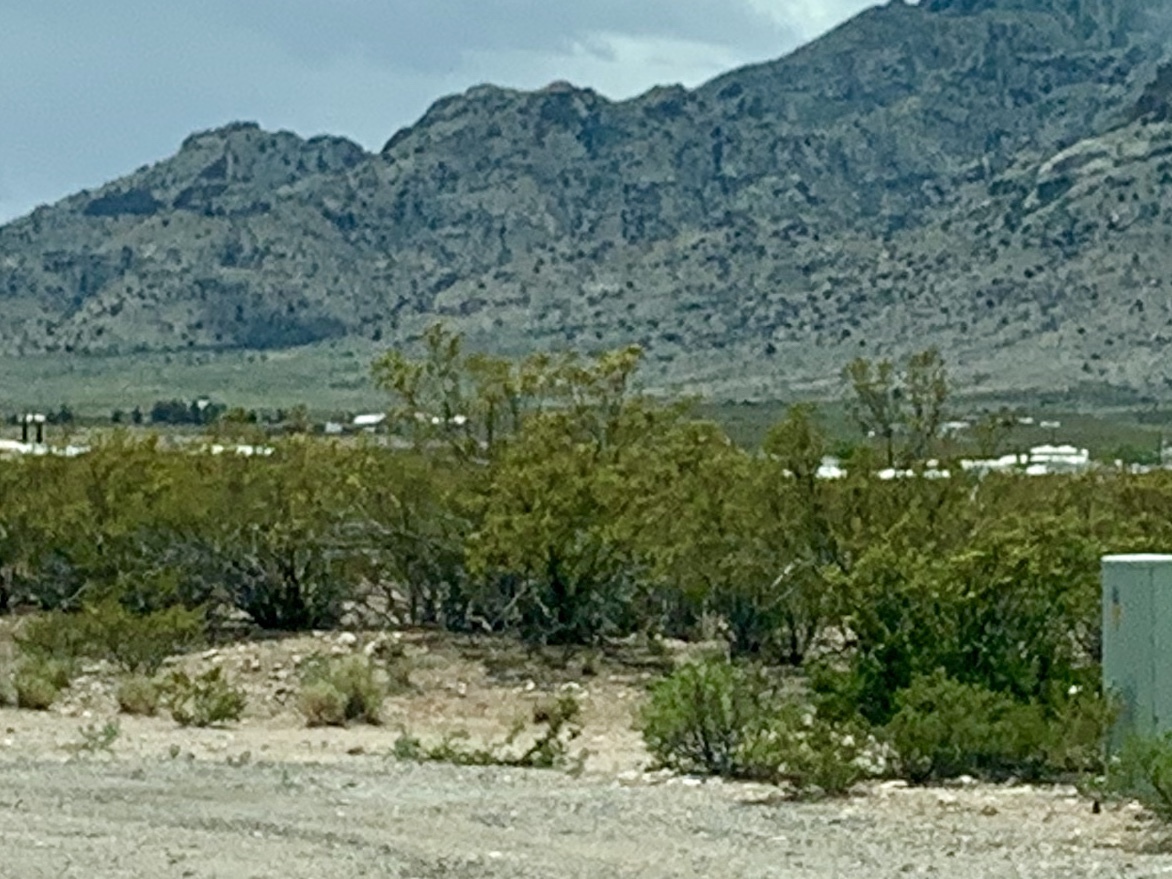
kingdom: Plantae
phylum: Tracheophyta
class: Magnoliopsida
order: Zygophyllales
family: Zygophyllaceae
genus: Larrea
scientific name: Larrea tridentata
